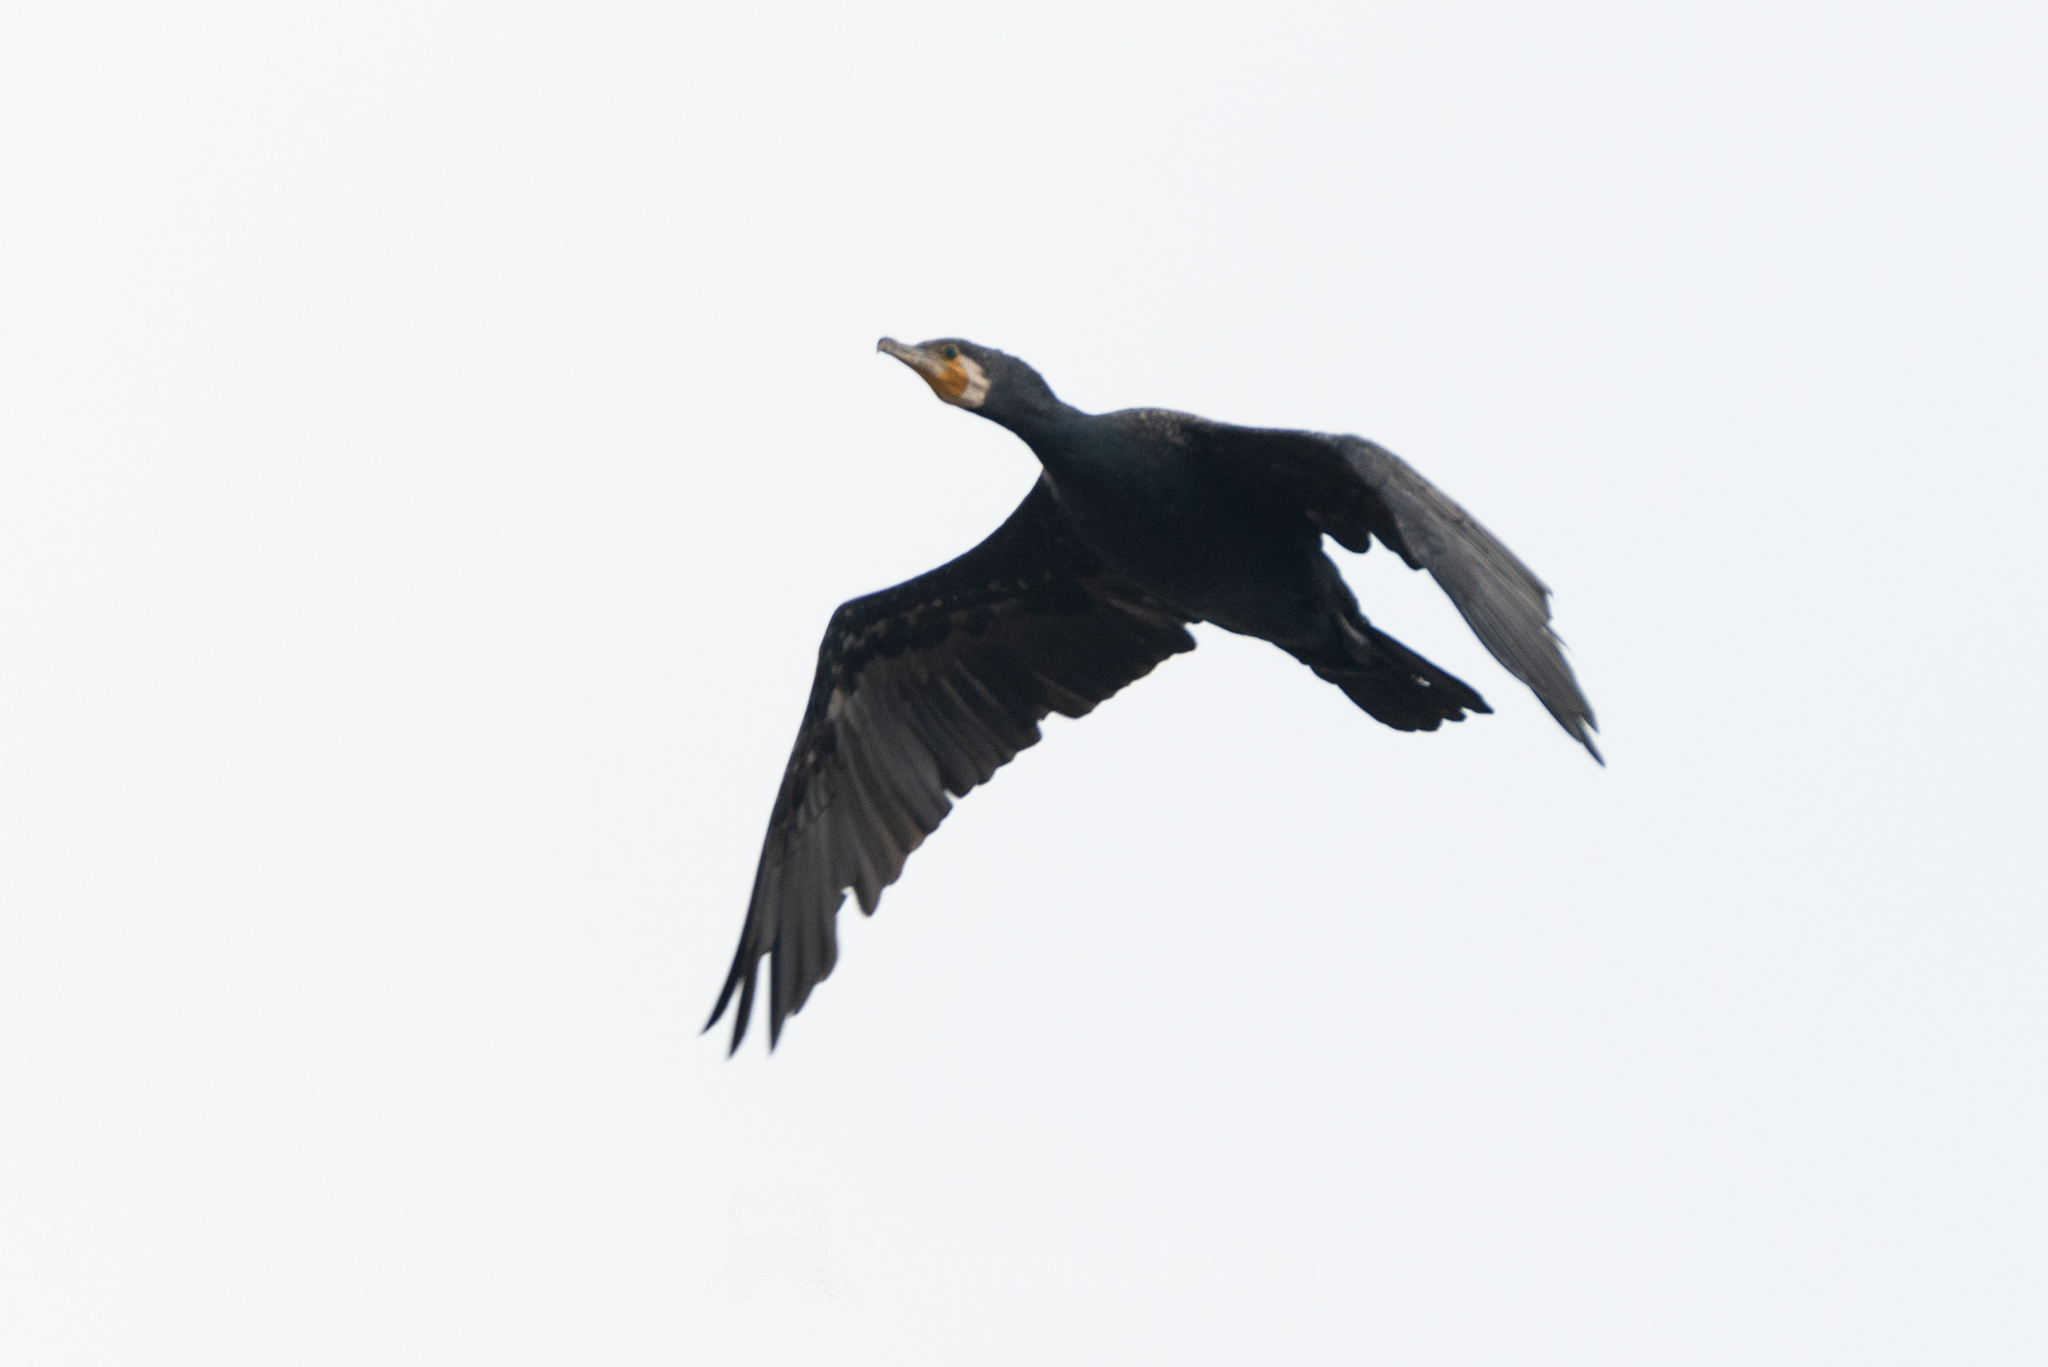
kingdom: Animalia
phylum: Chordata
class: Aves
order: Suliformes
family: Phalacrocoracidae
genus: Phalacrocorax
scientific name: Phalacrocorax carbo
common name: Great cormorant
